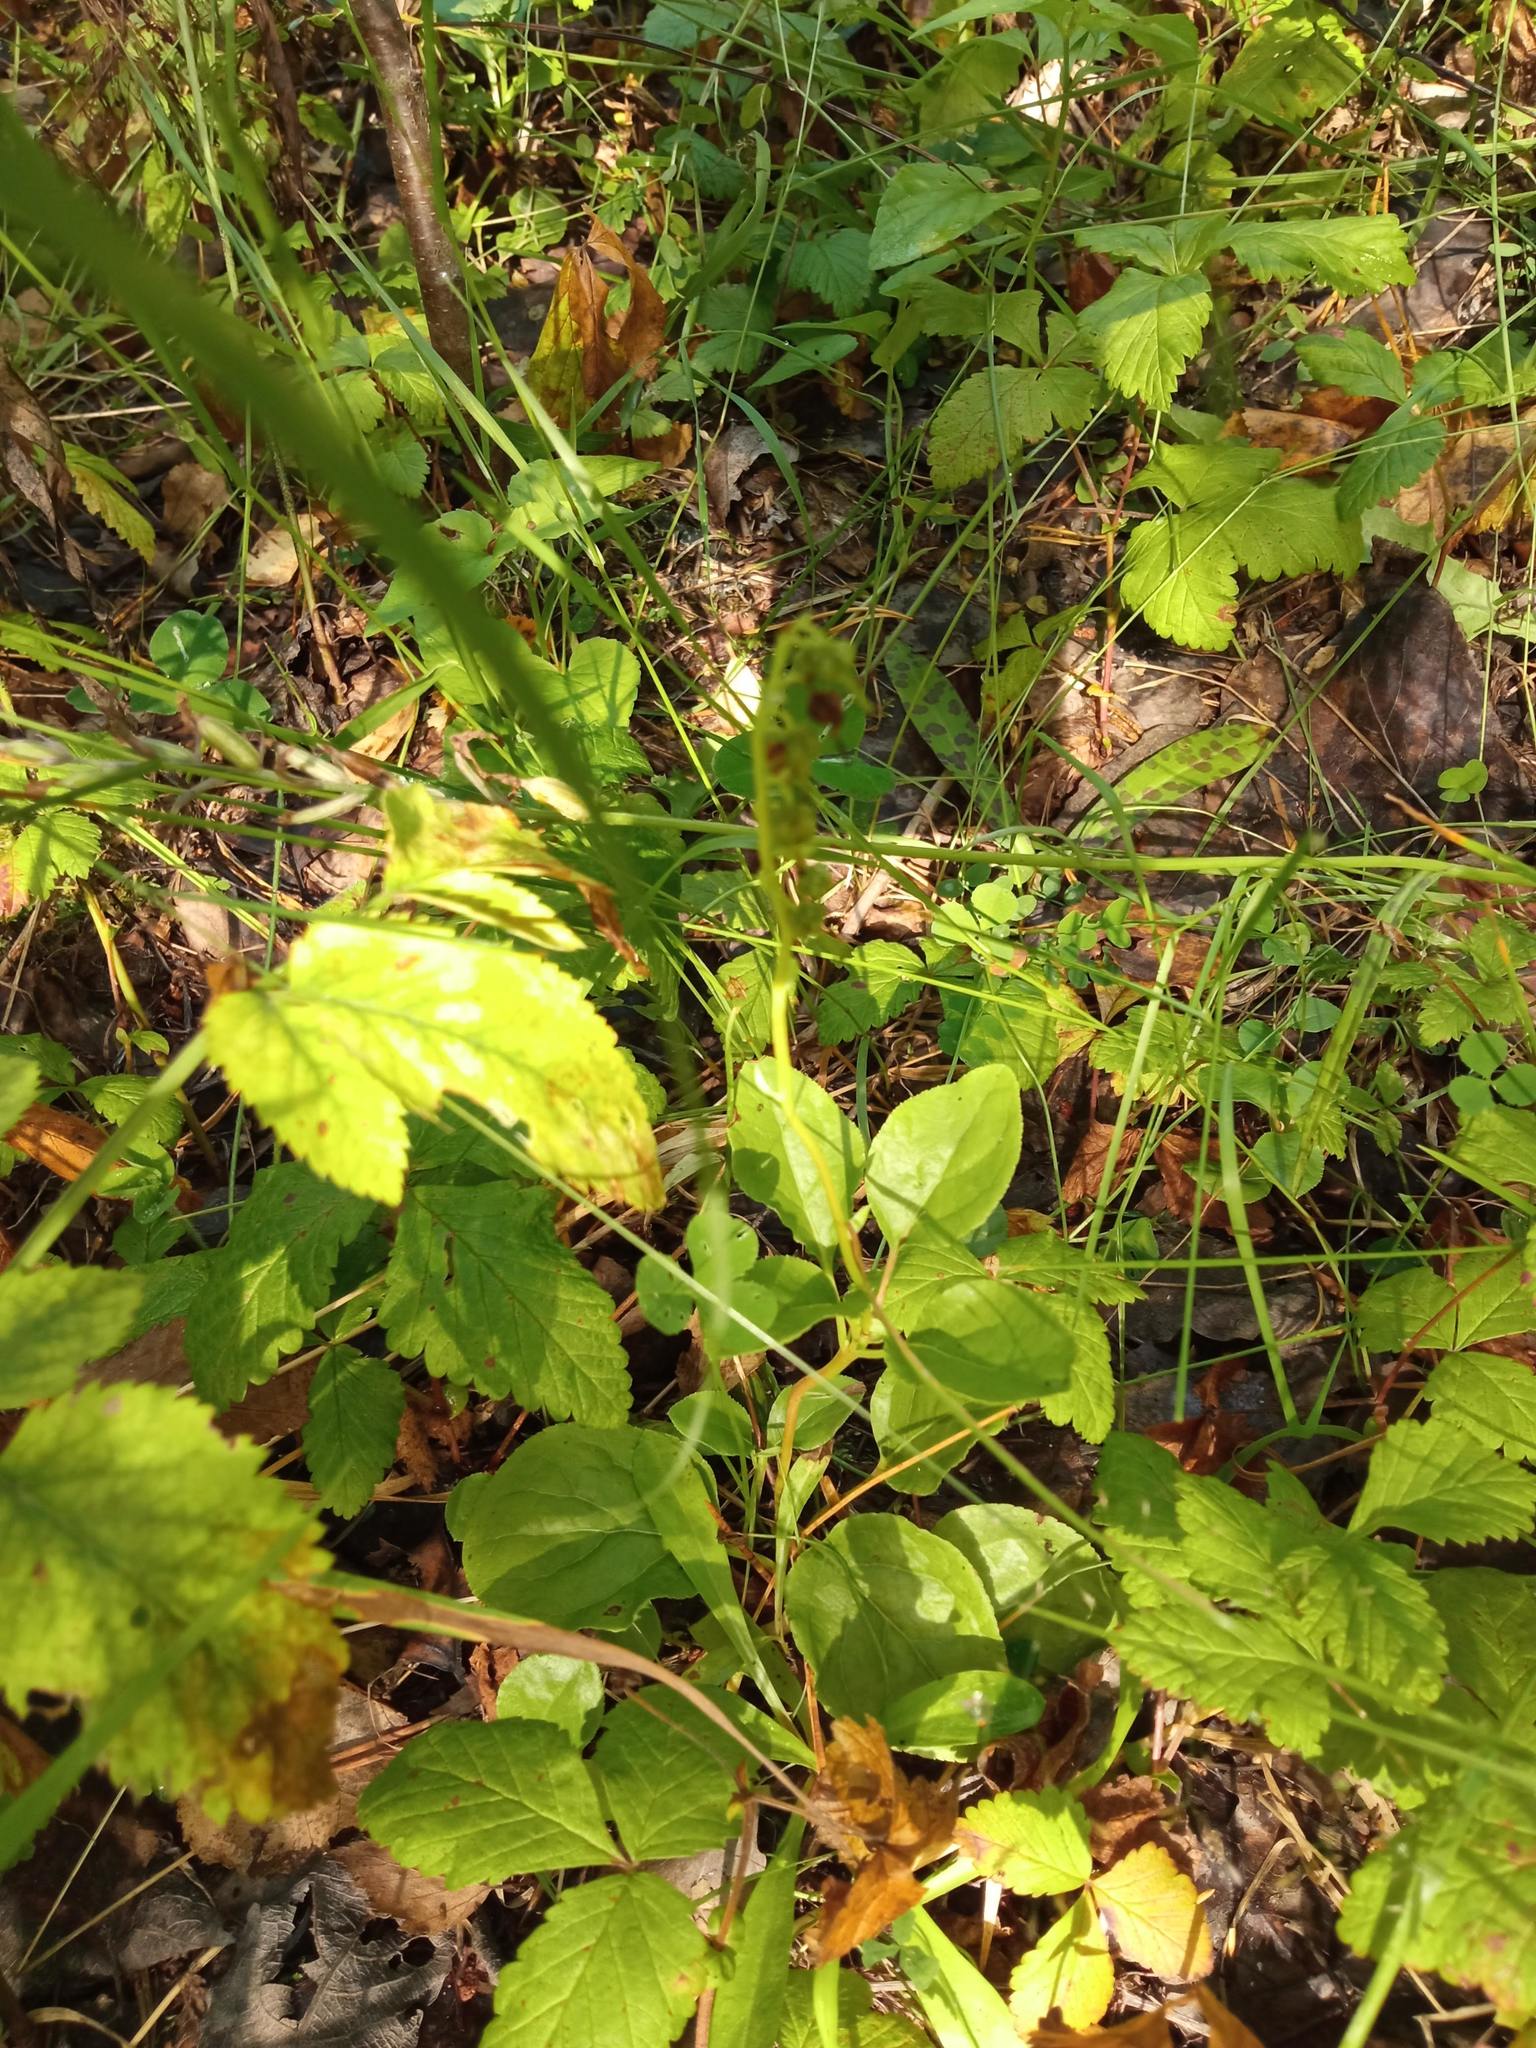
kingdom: Plantae
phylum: Tracheophyta
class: Magnoliopsida
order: Ericales
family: Ericaceae
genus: Orthilia
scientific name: Orthilia secunda
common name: One-sided orthilia
